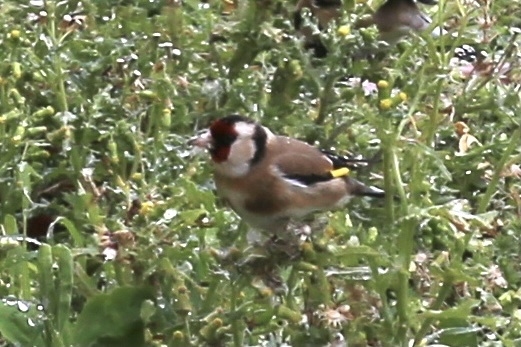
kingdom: Animalia
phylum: Chordata
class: Aves
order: Passeriformes
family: Fringillidae
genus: Carduelis
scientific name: Carduelis carduelis
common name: European goldfinch
